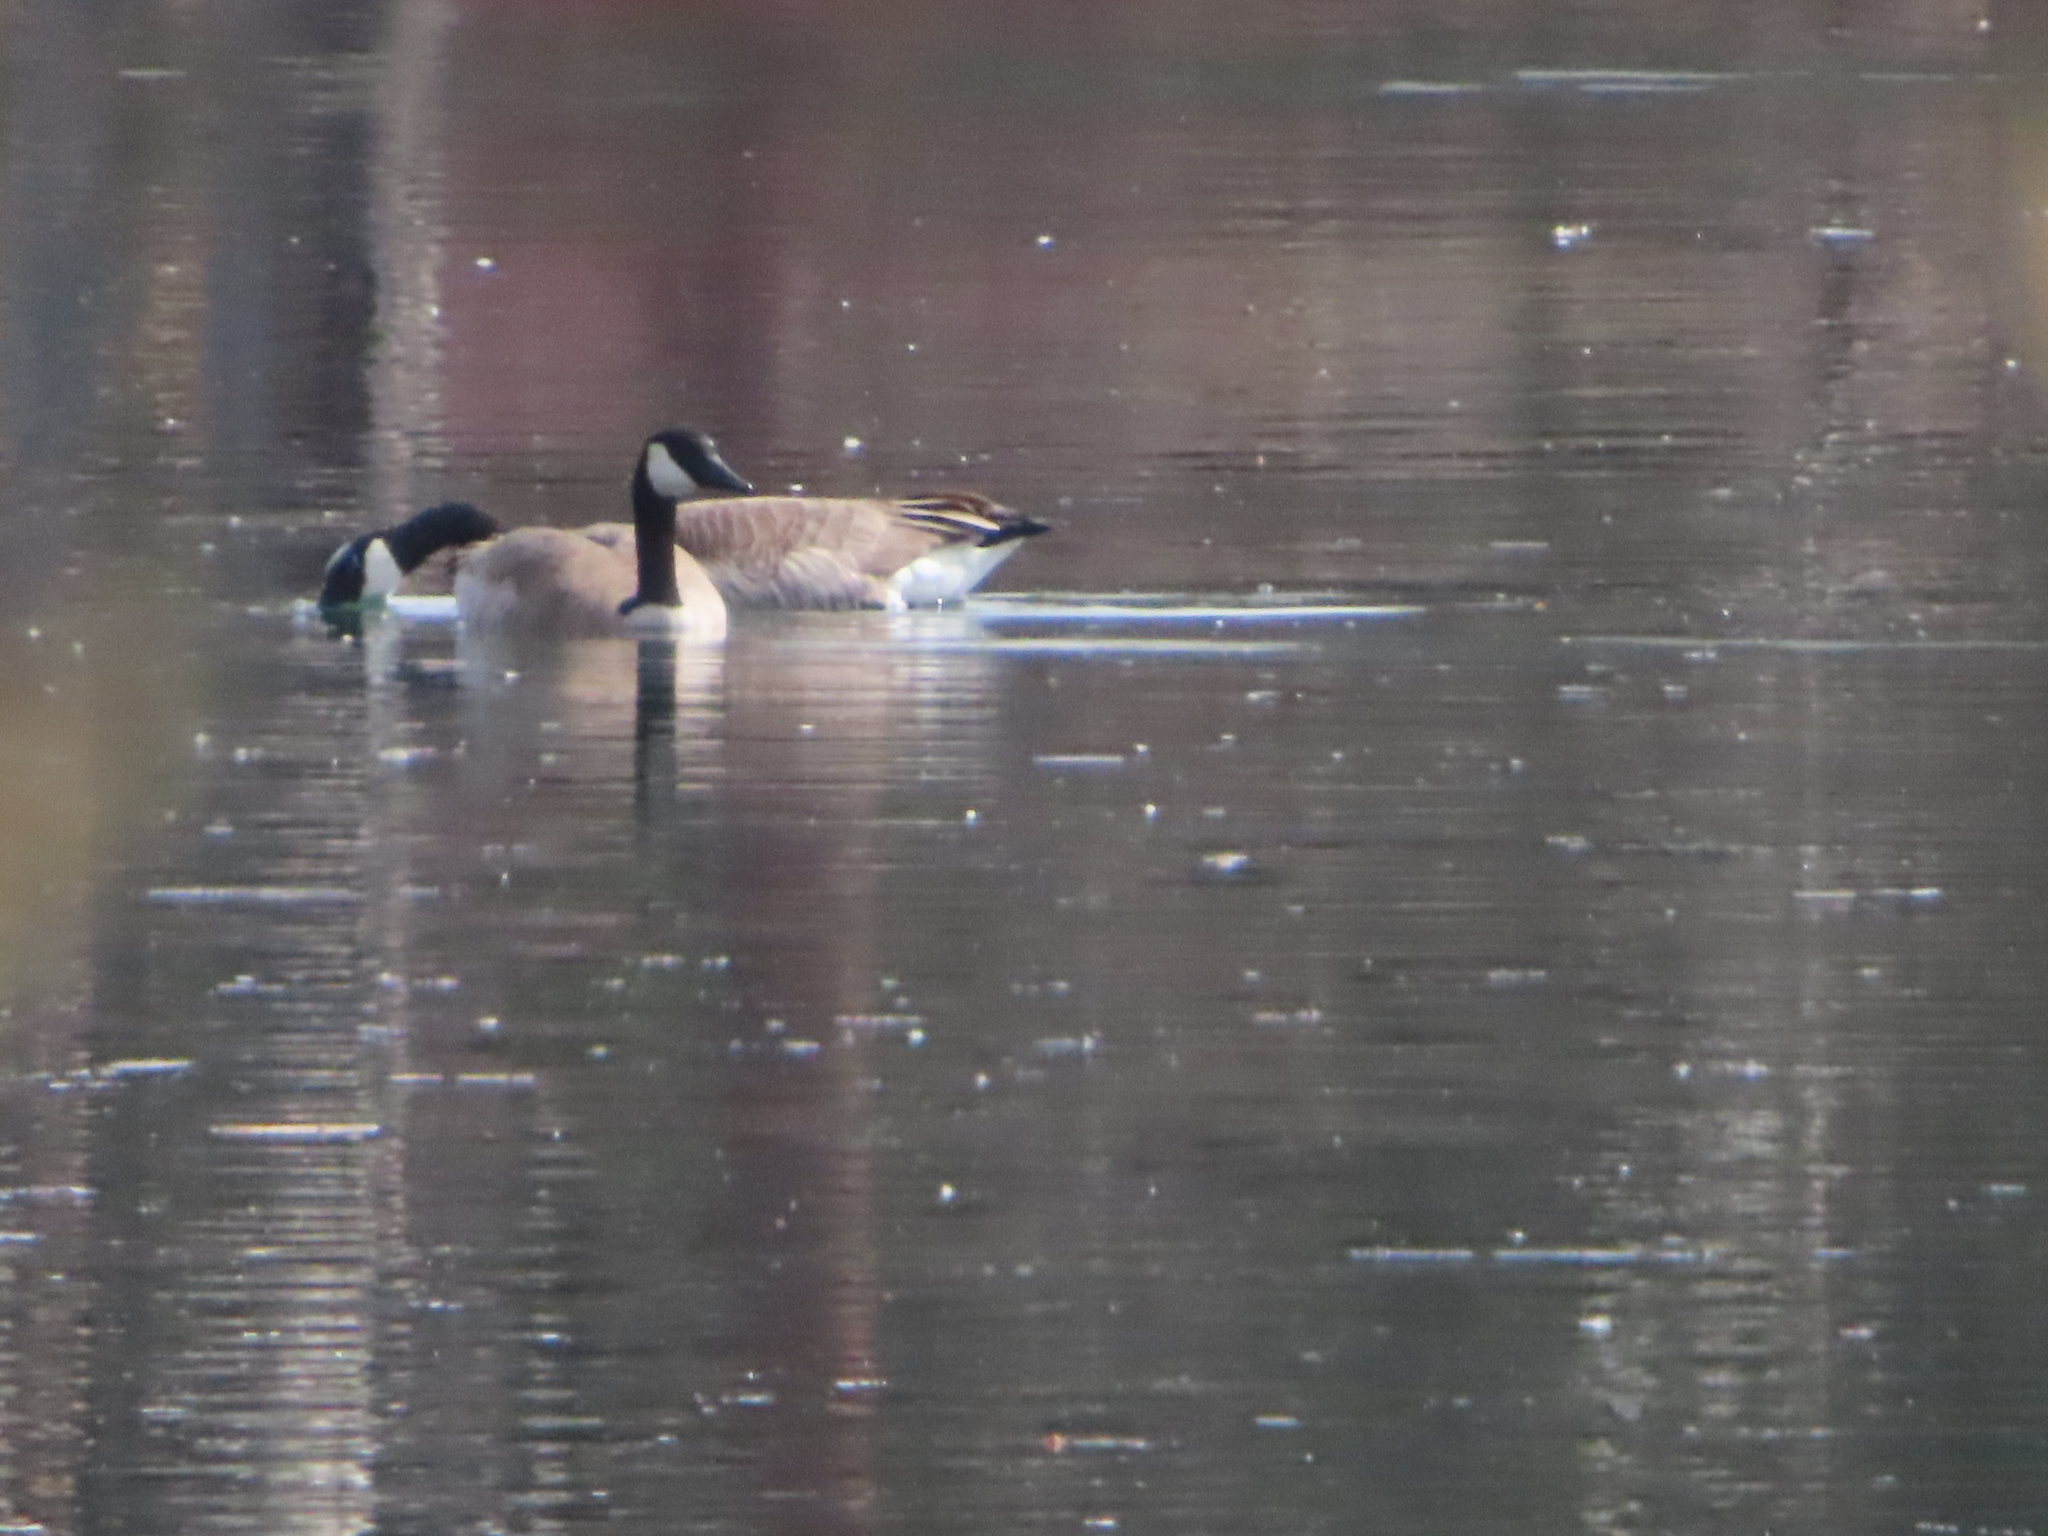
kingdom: Animalia
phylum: Chordata
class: Aves
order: Anseriformes
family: Anatidae
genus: Branta
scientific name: Branta canadensis
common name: Canada goose
